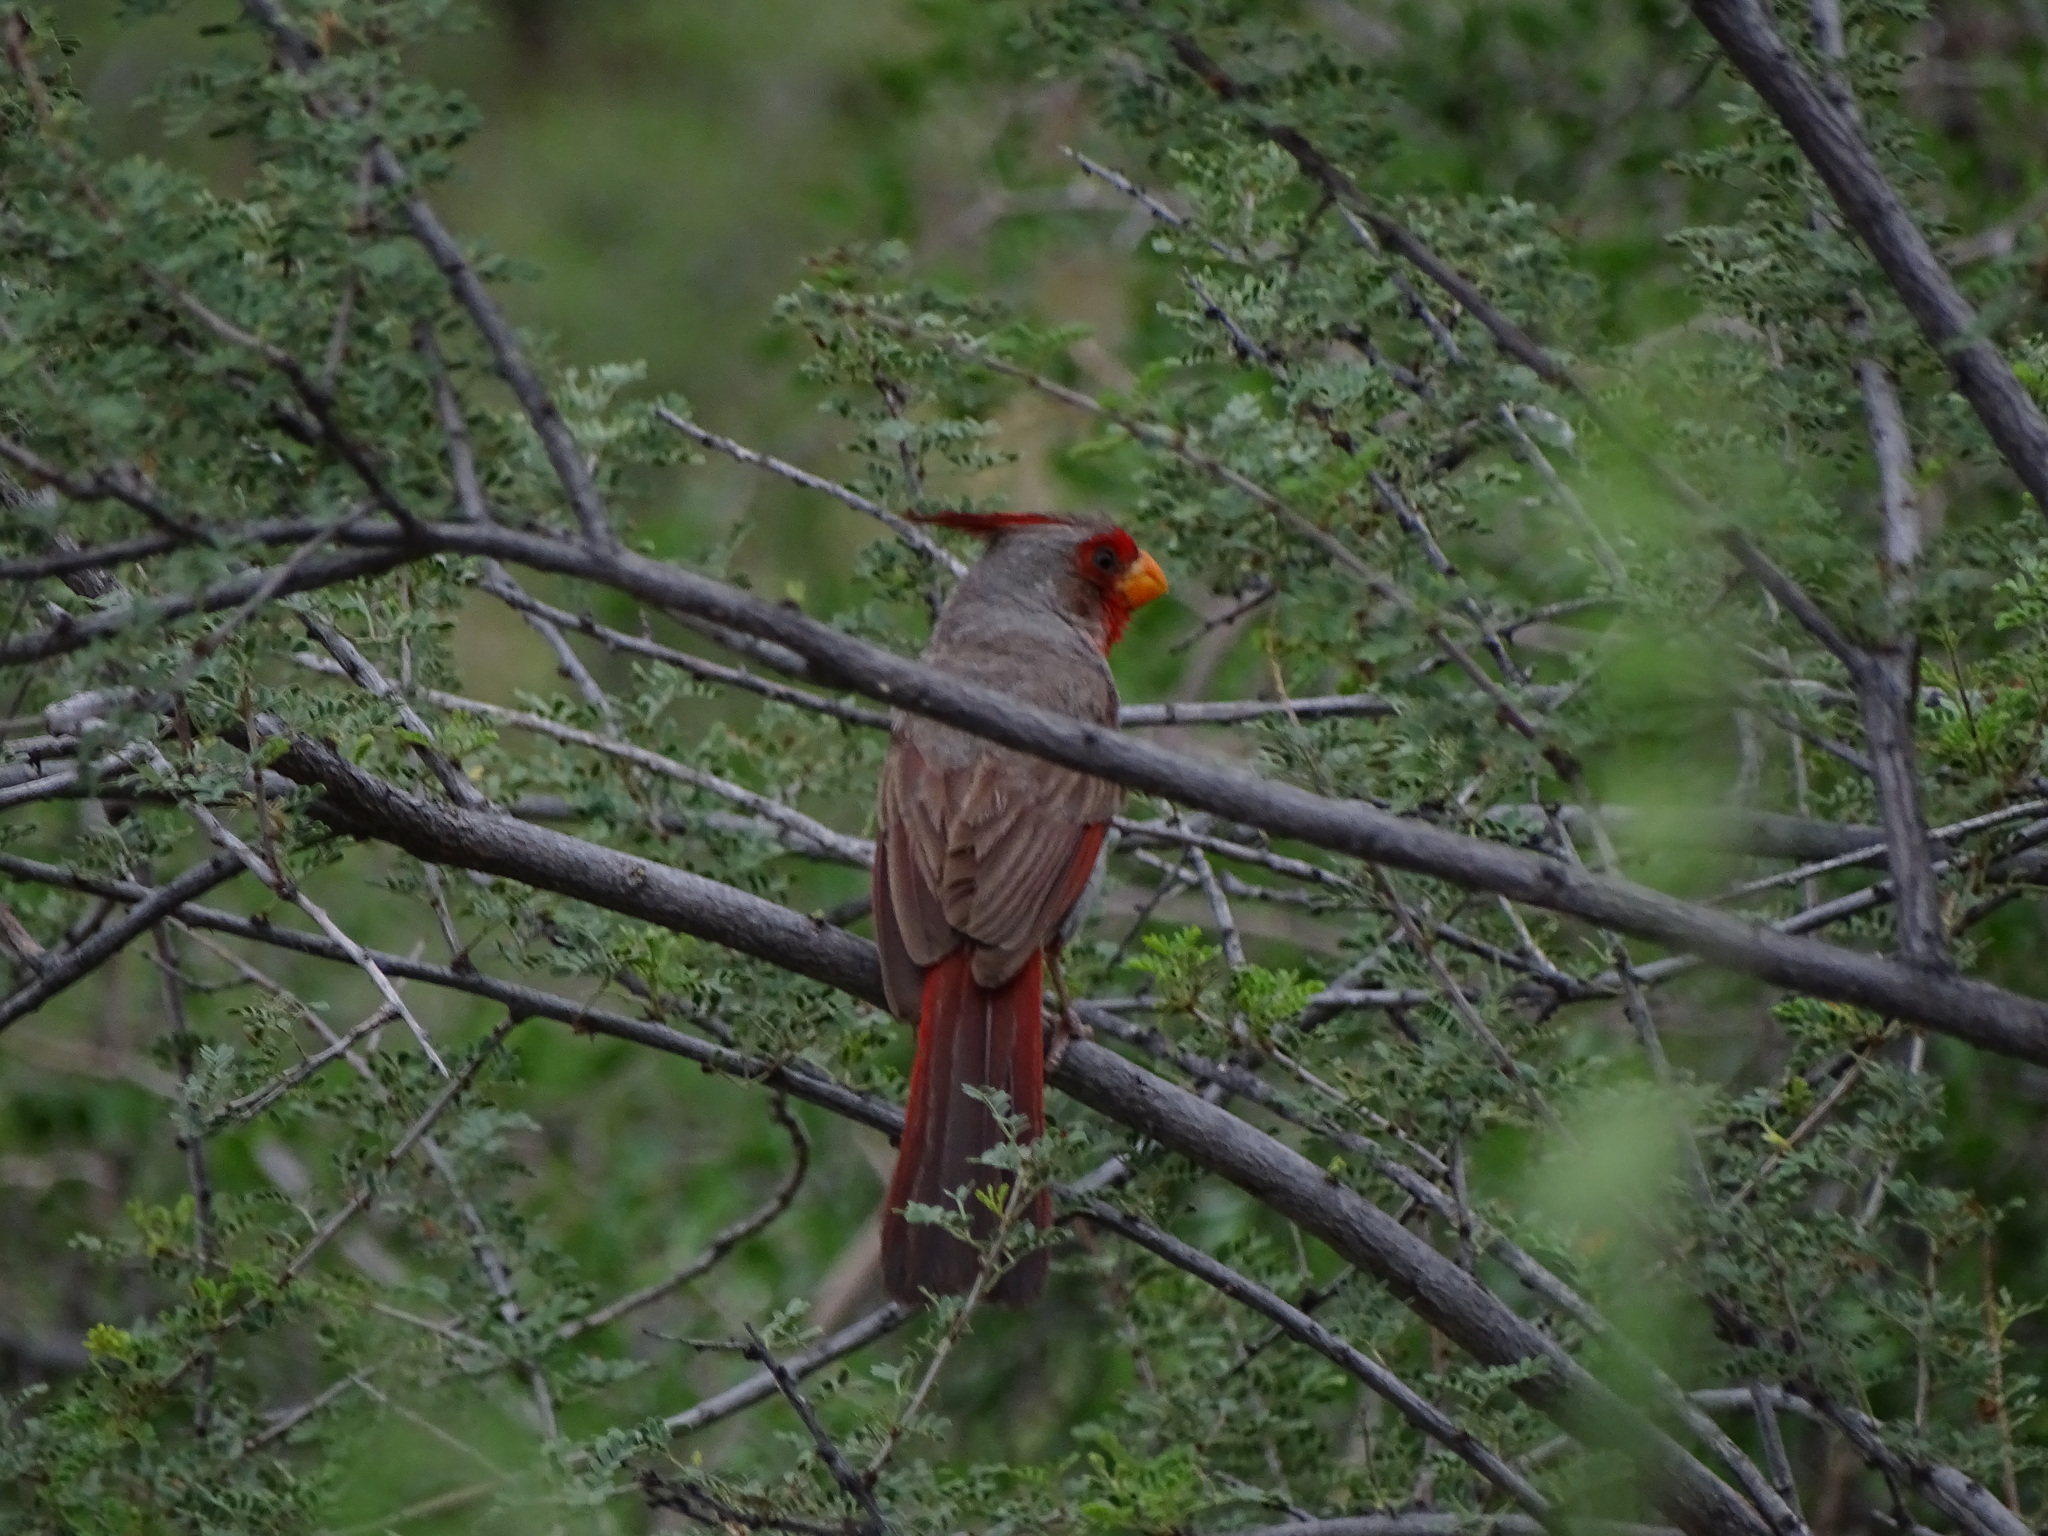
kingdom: Animalia
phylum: Chordata
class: Aves
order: Passeriformes
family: Cardinalidae
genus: Cardinalis
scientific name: Cardinalis sinuatus
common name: Pyrrhuloxia
